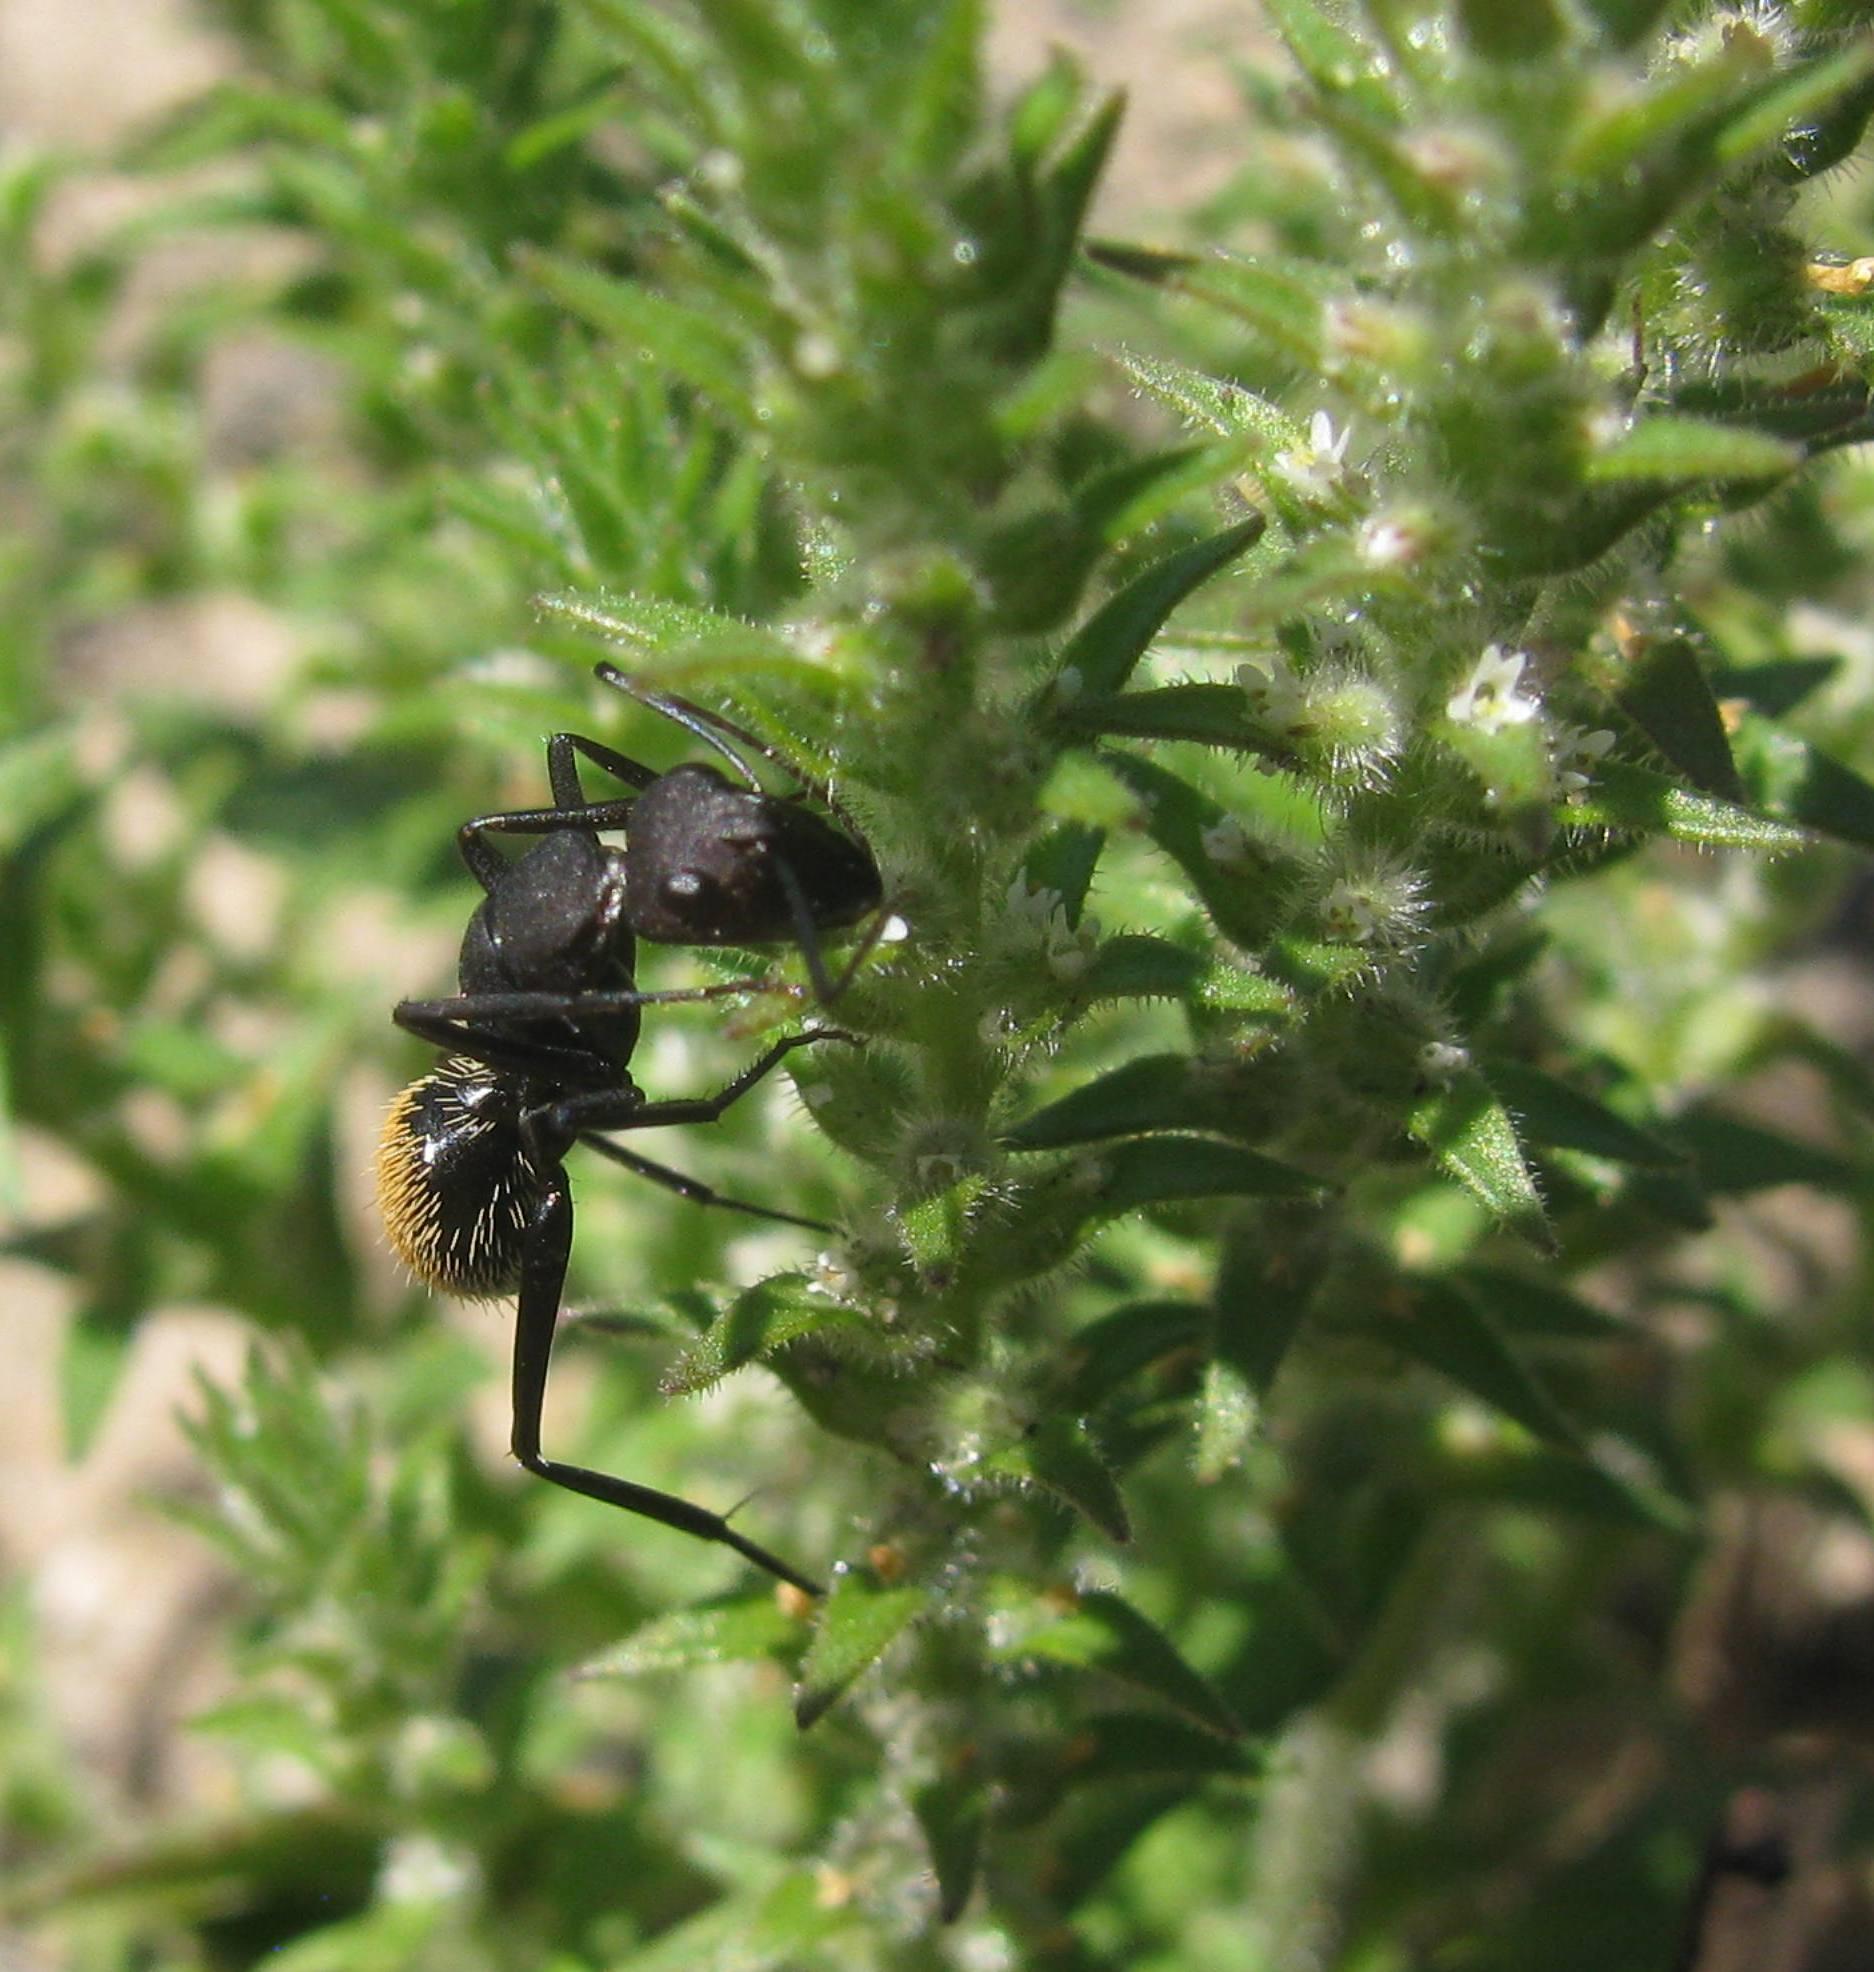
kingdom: Animalia
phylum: Arthropoda
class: Insecta
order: Hymenoptera
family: Formicidae
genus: Camponotus
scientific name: Camponotus fulvopilosus
